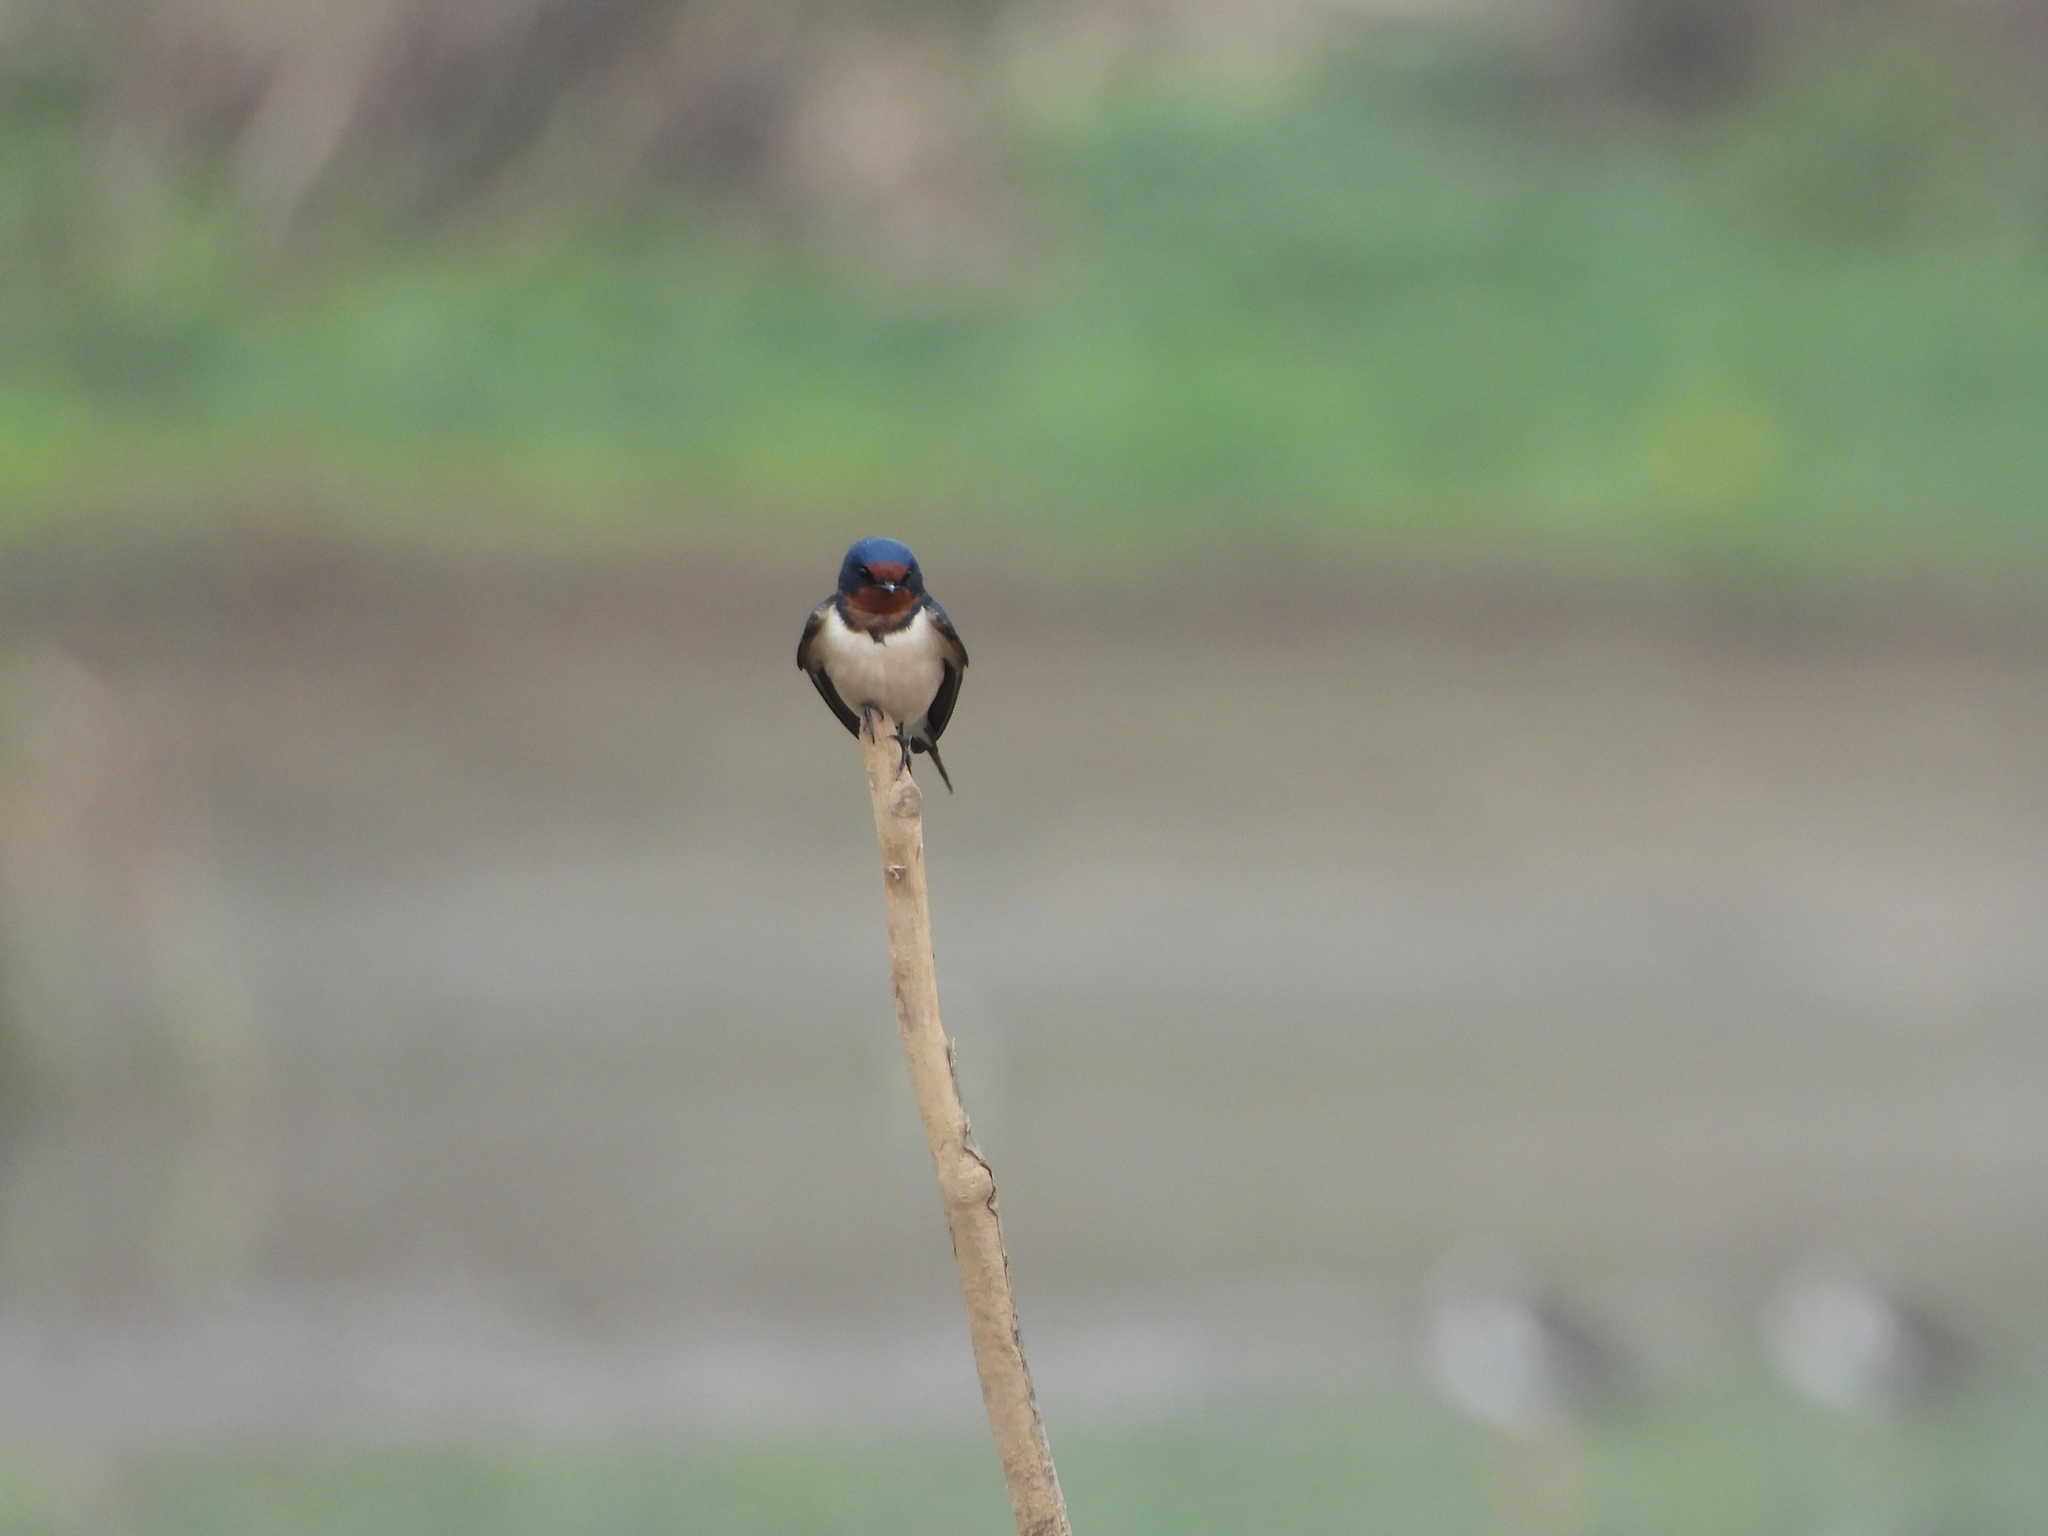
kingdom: Animalia
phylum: Chordata
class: Aves
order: Passeriformes
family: Hirundinidae
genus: Hirundo
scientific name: Hirundo rustica
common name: Barn swallow
